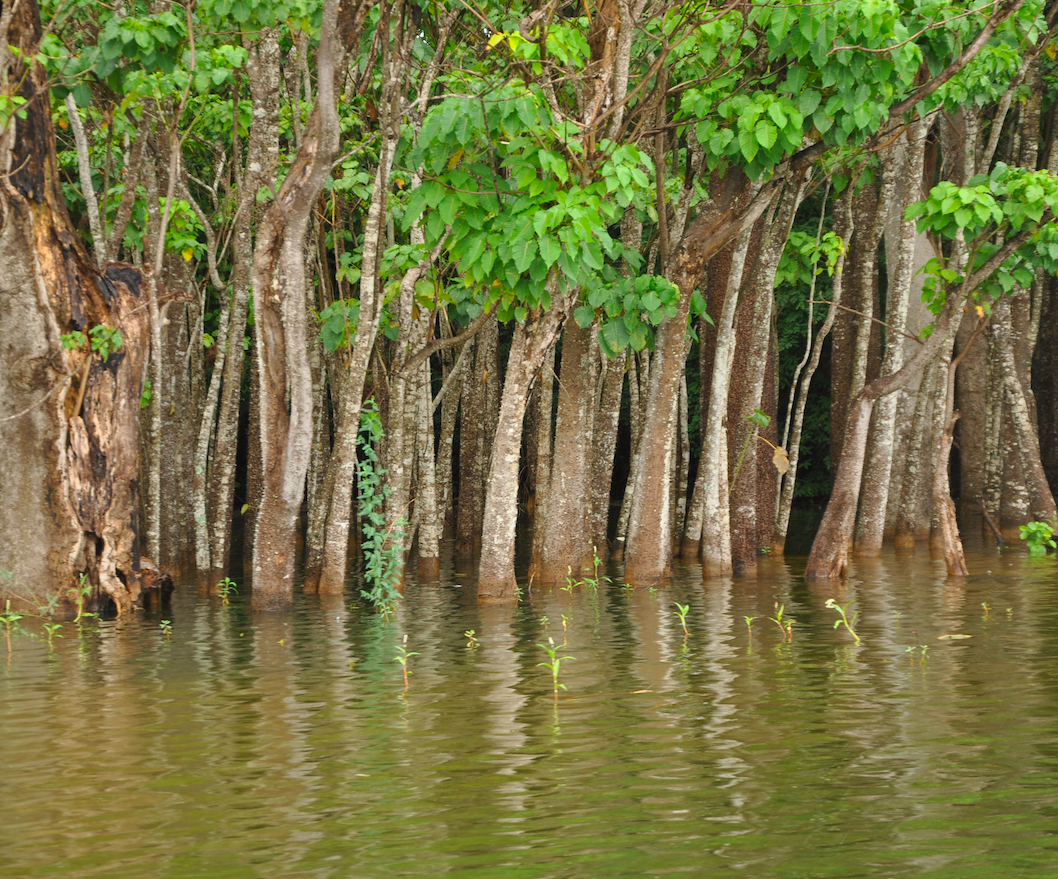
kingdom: Plantae
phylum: Tracheophyta
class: Magnoliopsida
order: Malpighiales
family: Euphorbiaceae
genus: Hura
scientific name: Hura crepitans
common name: Sandboxtree
